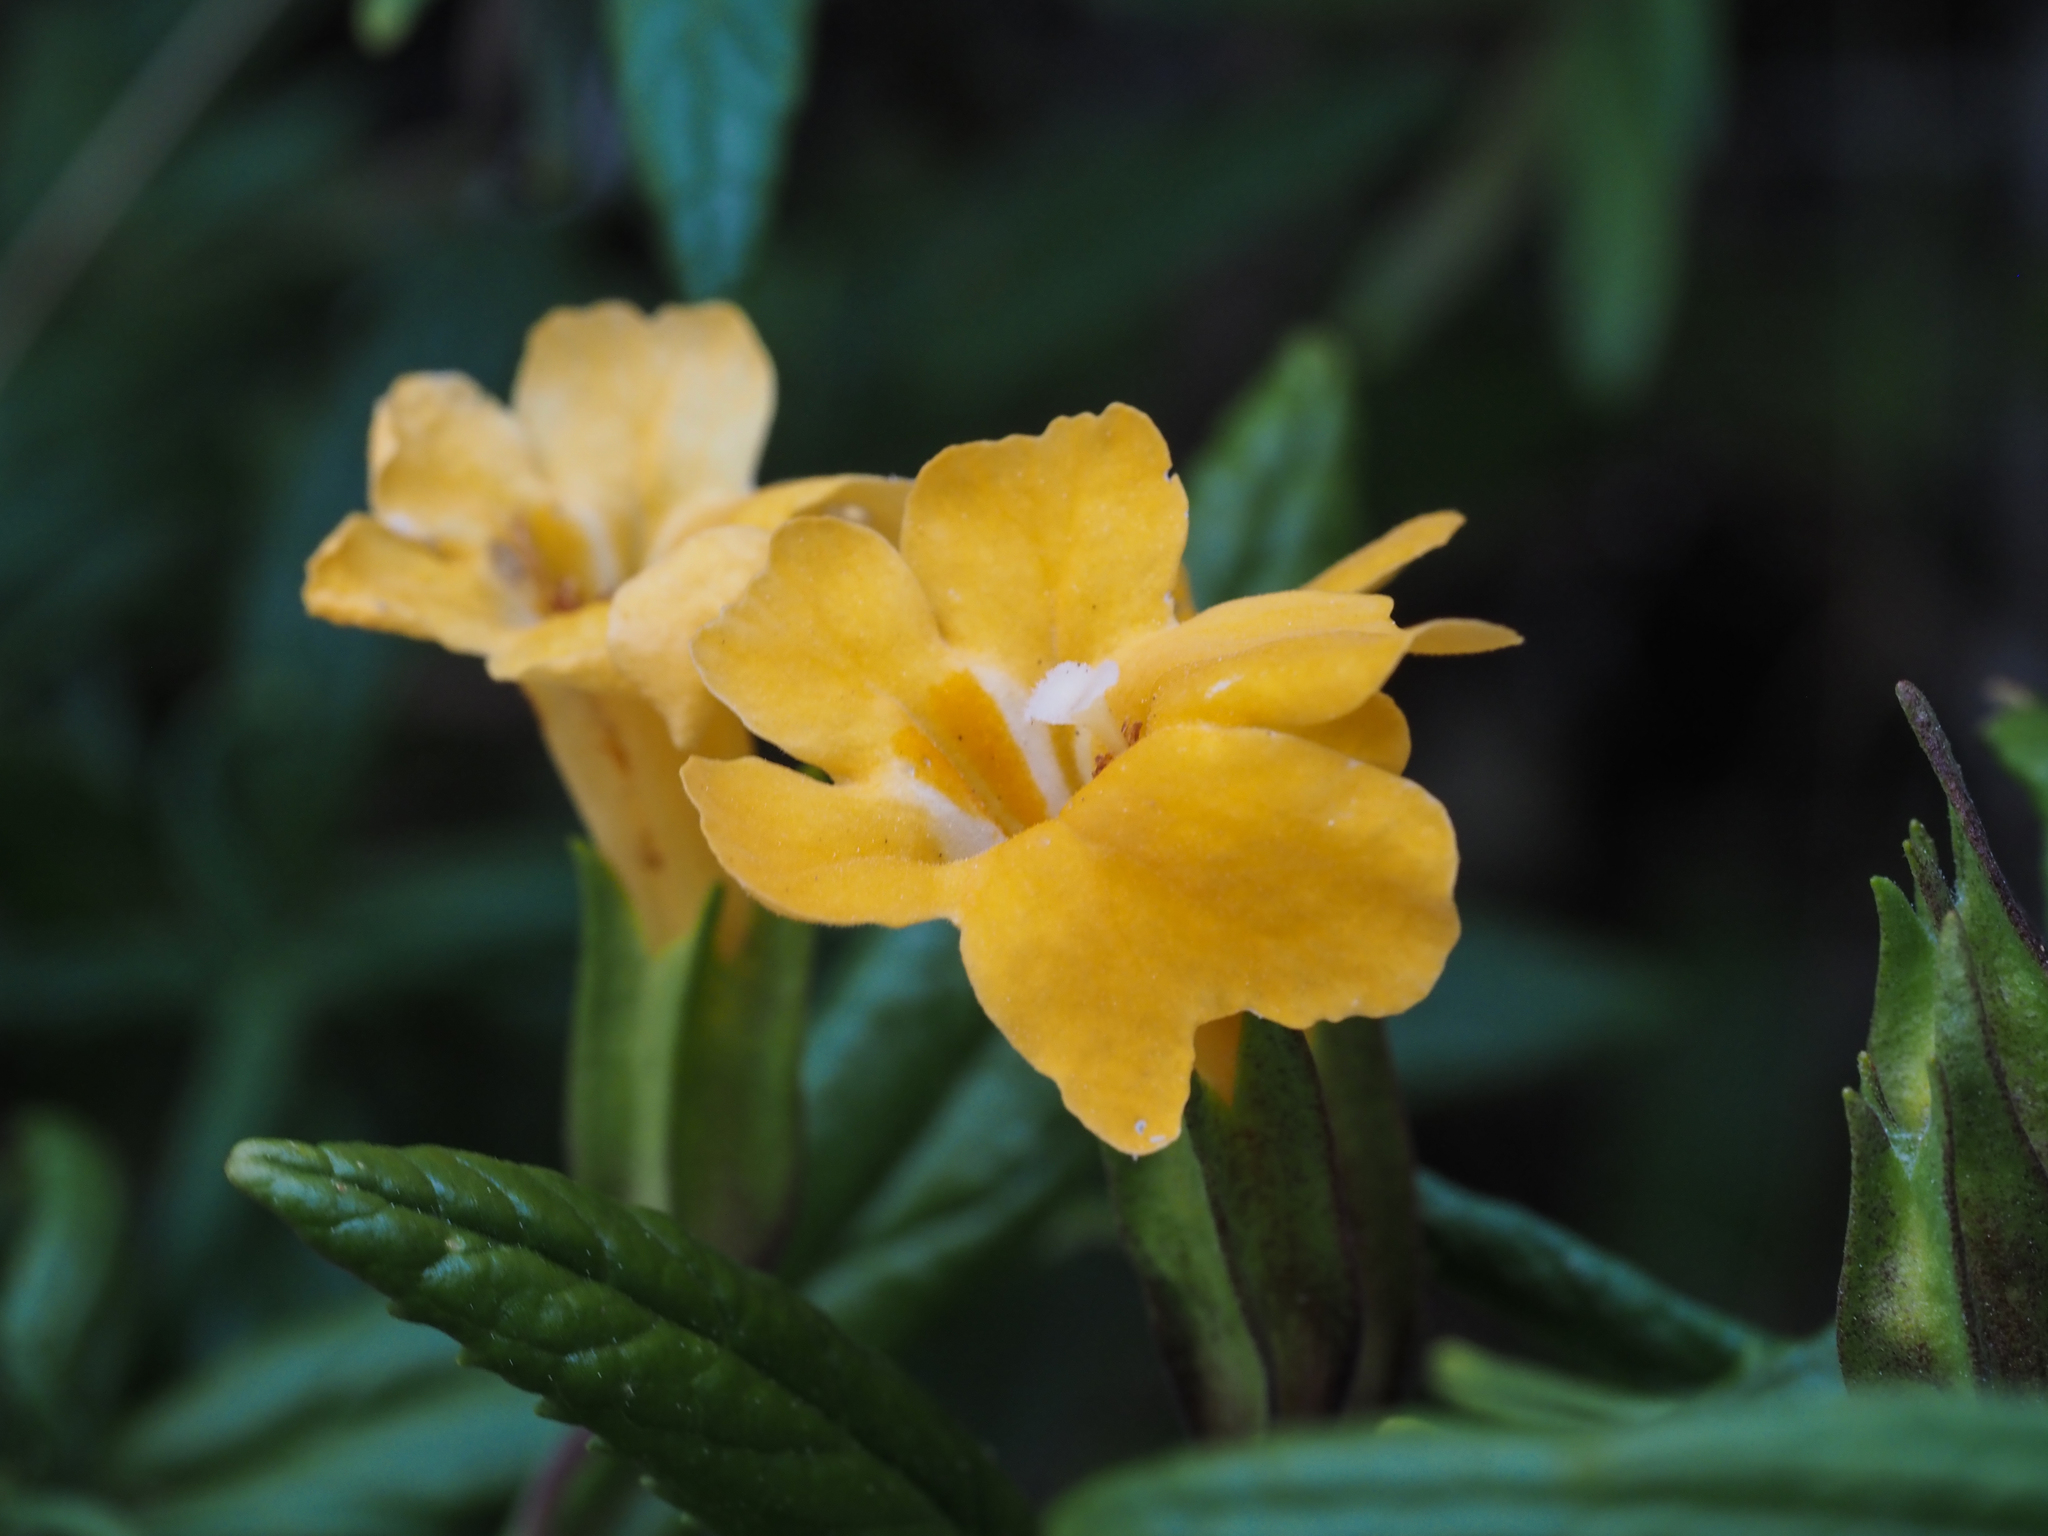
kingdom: Plantae
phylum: Tracheophyta
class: Magnoliopsida
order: Lamiales
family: Phrymaceae
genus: Diplacus
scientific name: Diplacus aurantiacus
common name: Bush monkey-flower
